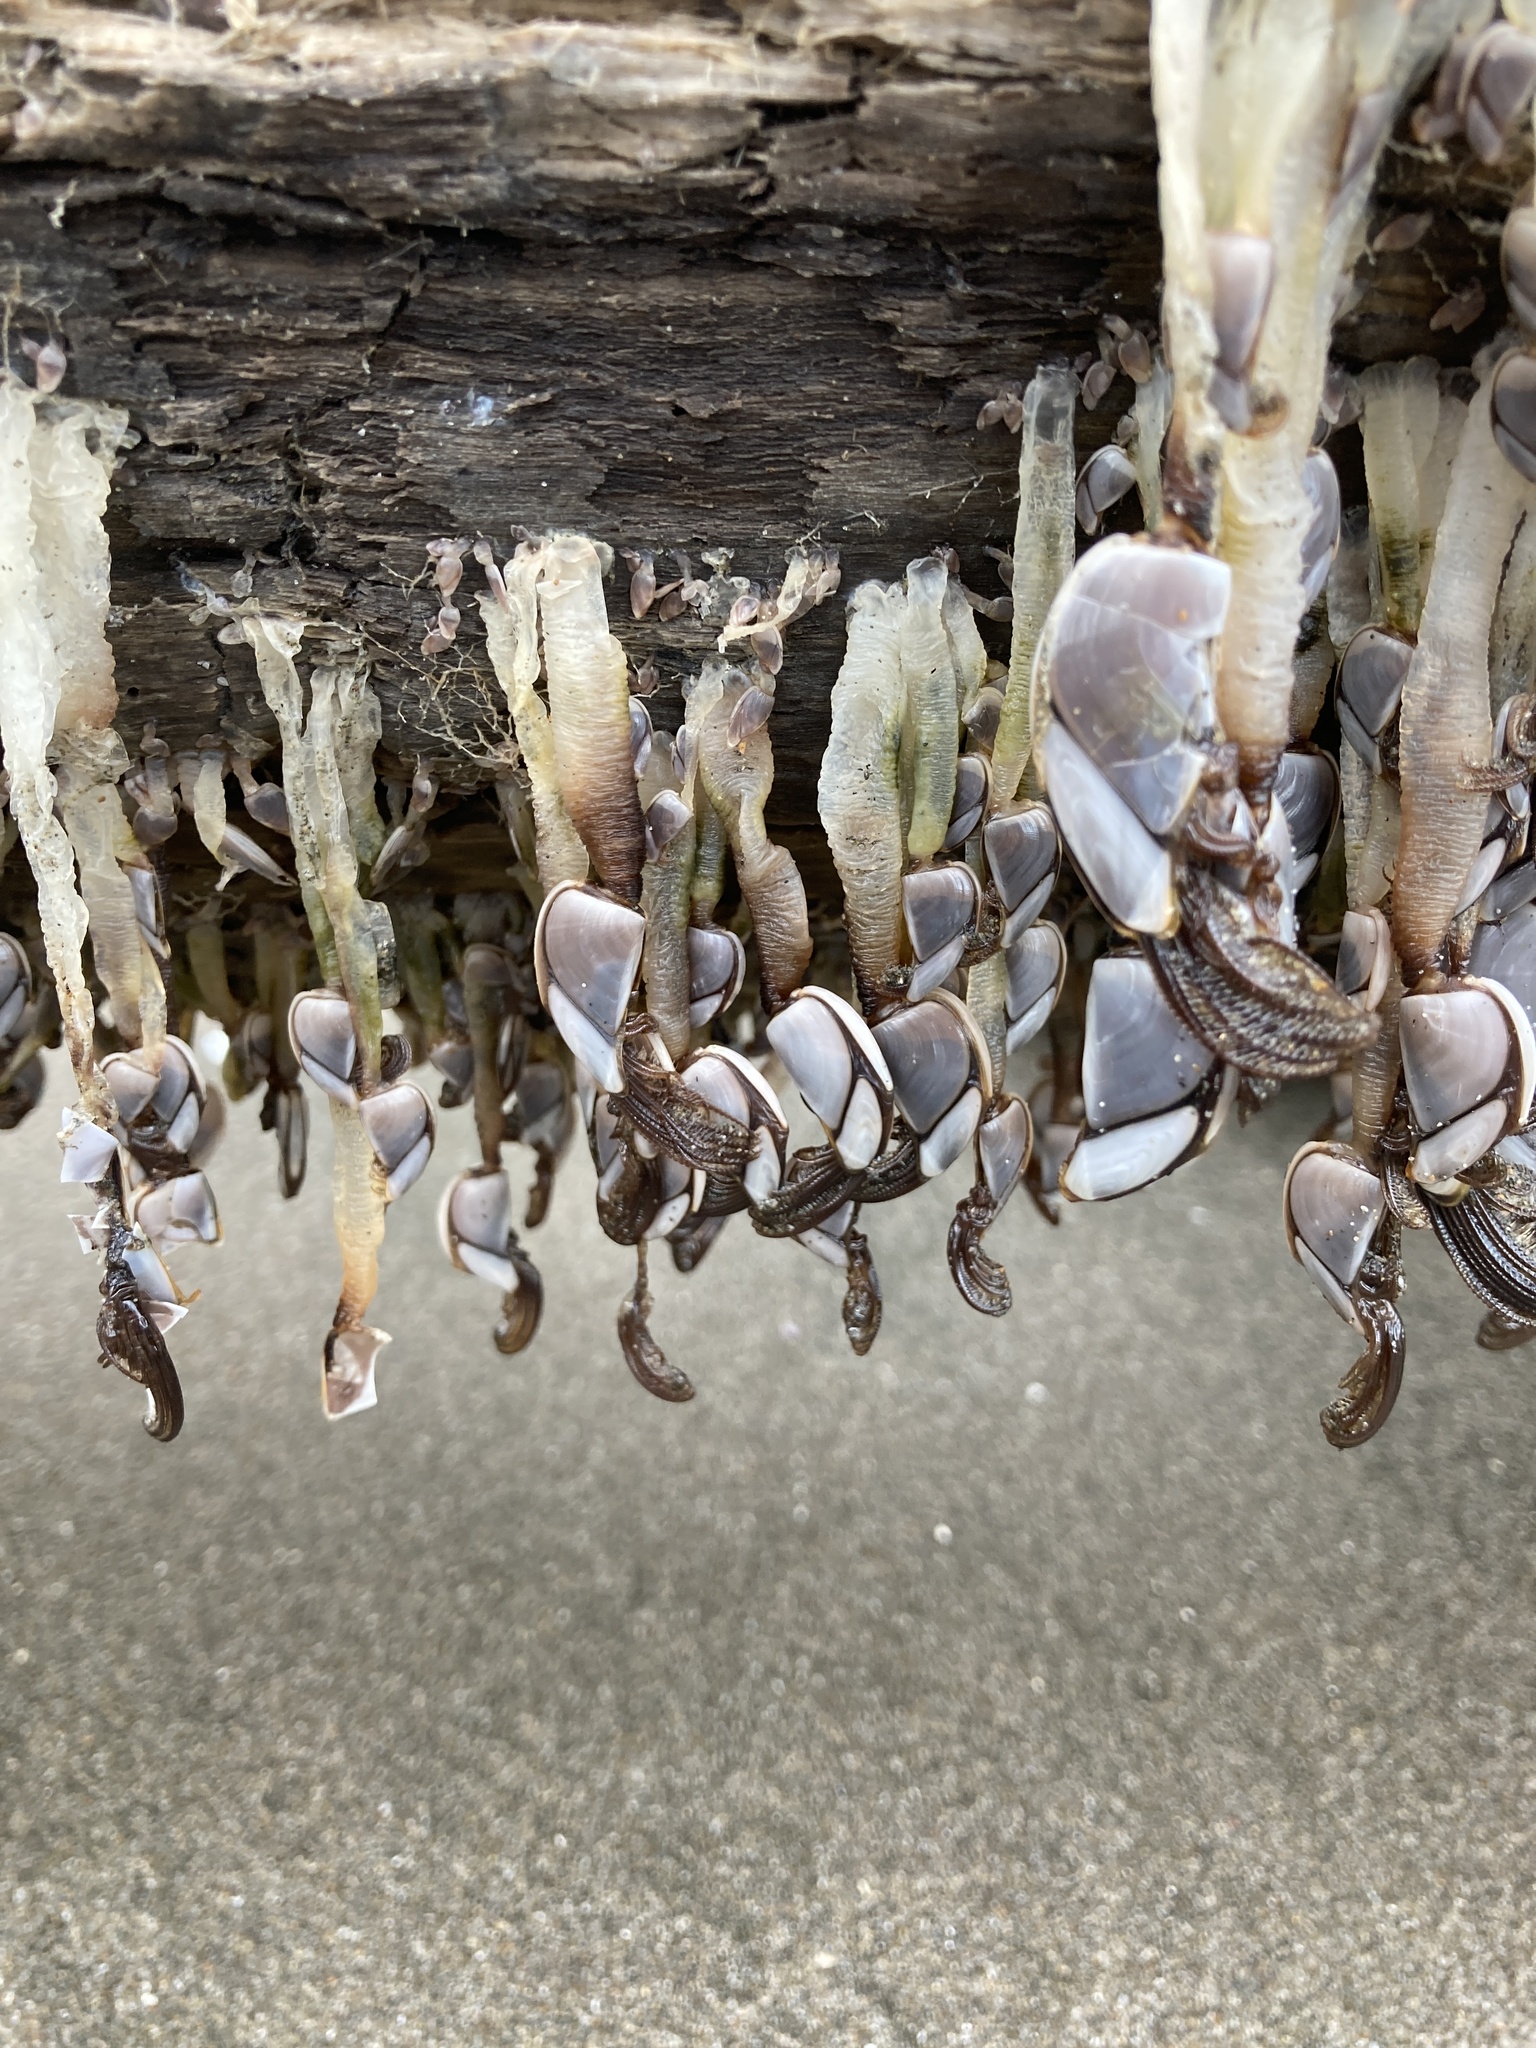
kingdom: Animalia
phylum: Arthropoda
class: Maxillopoda
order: Pedunculata
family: Lepadidae
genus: Lepas
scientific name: Lepas testudinata
